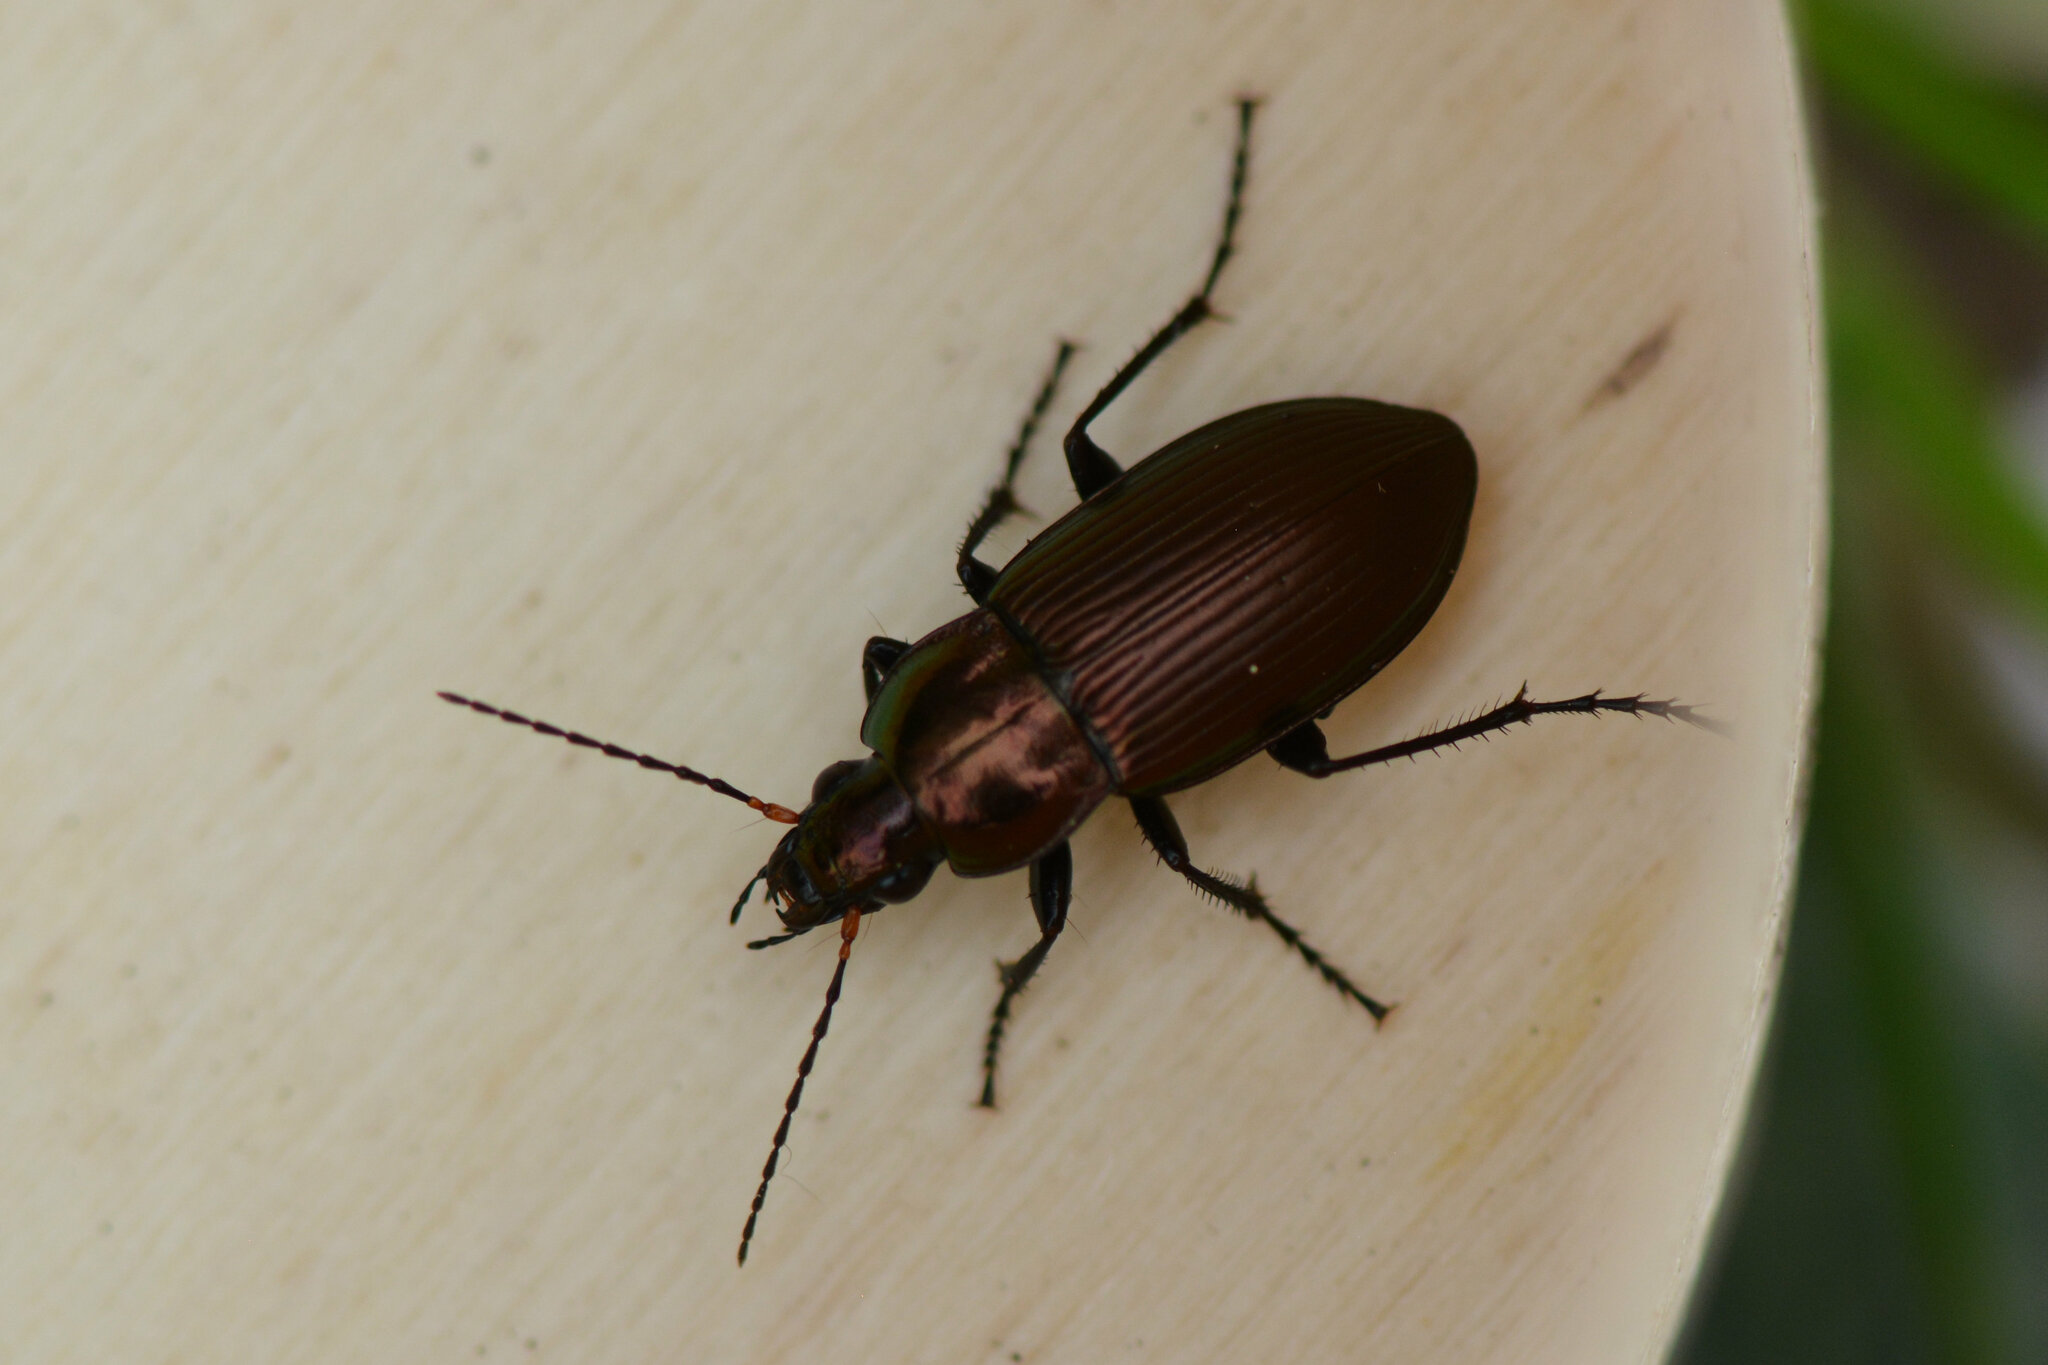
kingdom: Animalia
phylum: Arthropoda
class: Insecta
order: Coleoptera
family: Carabidae
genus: Poecilus
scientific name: Poecilus cupreus
